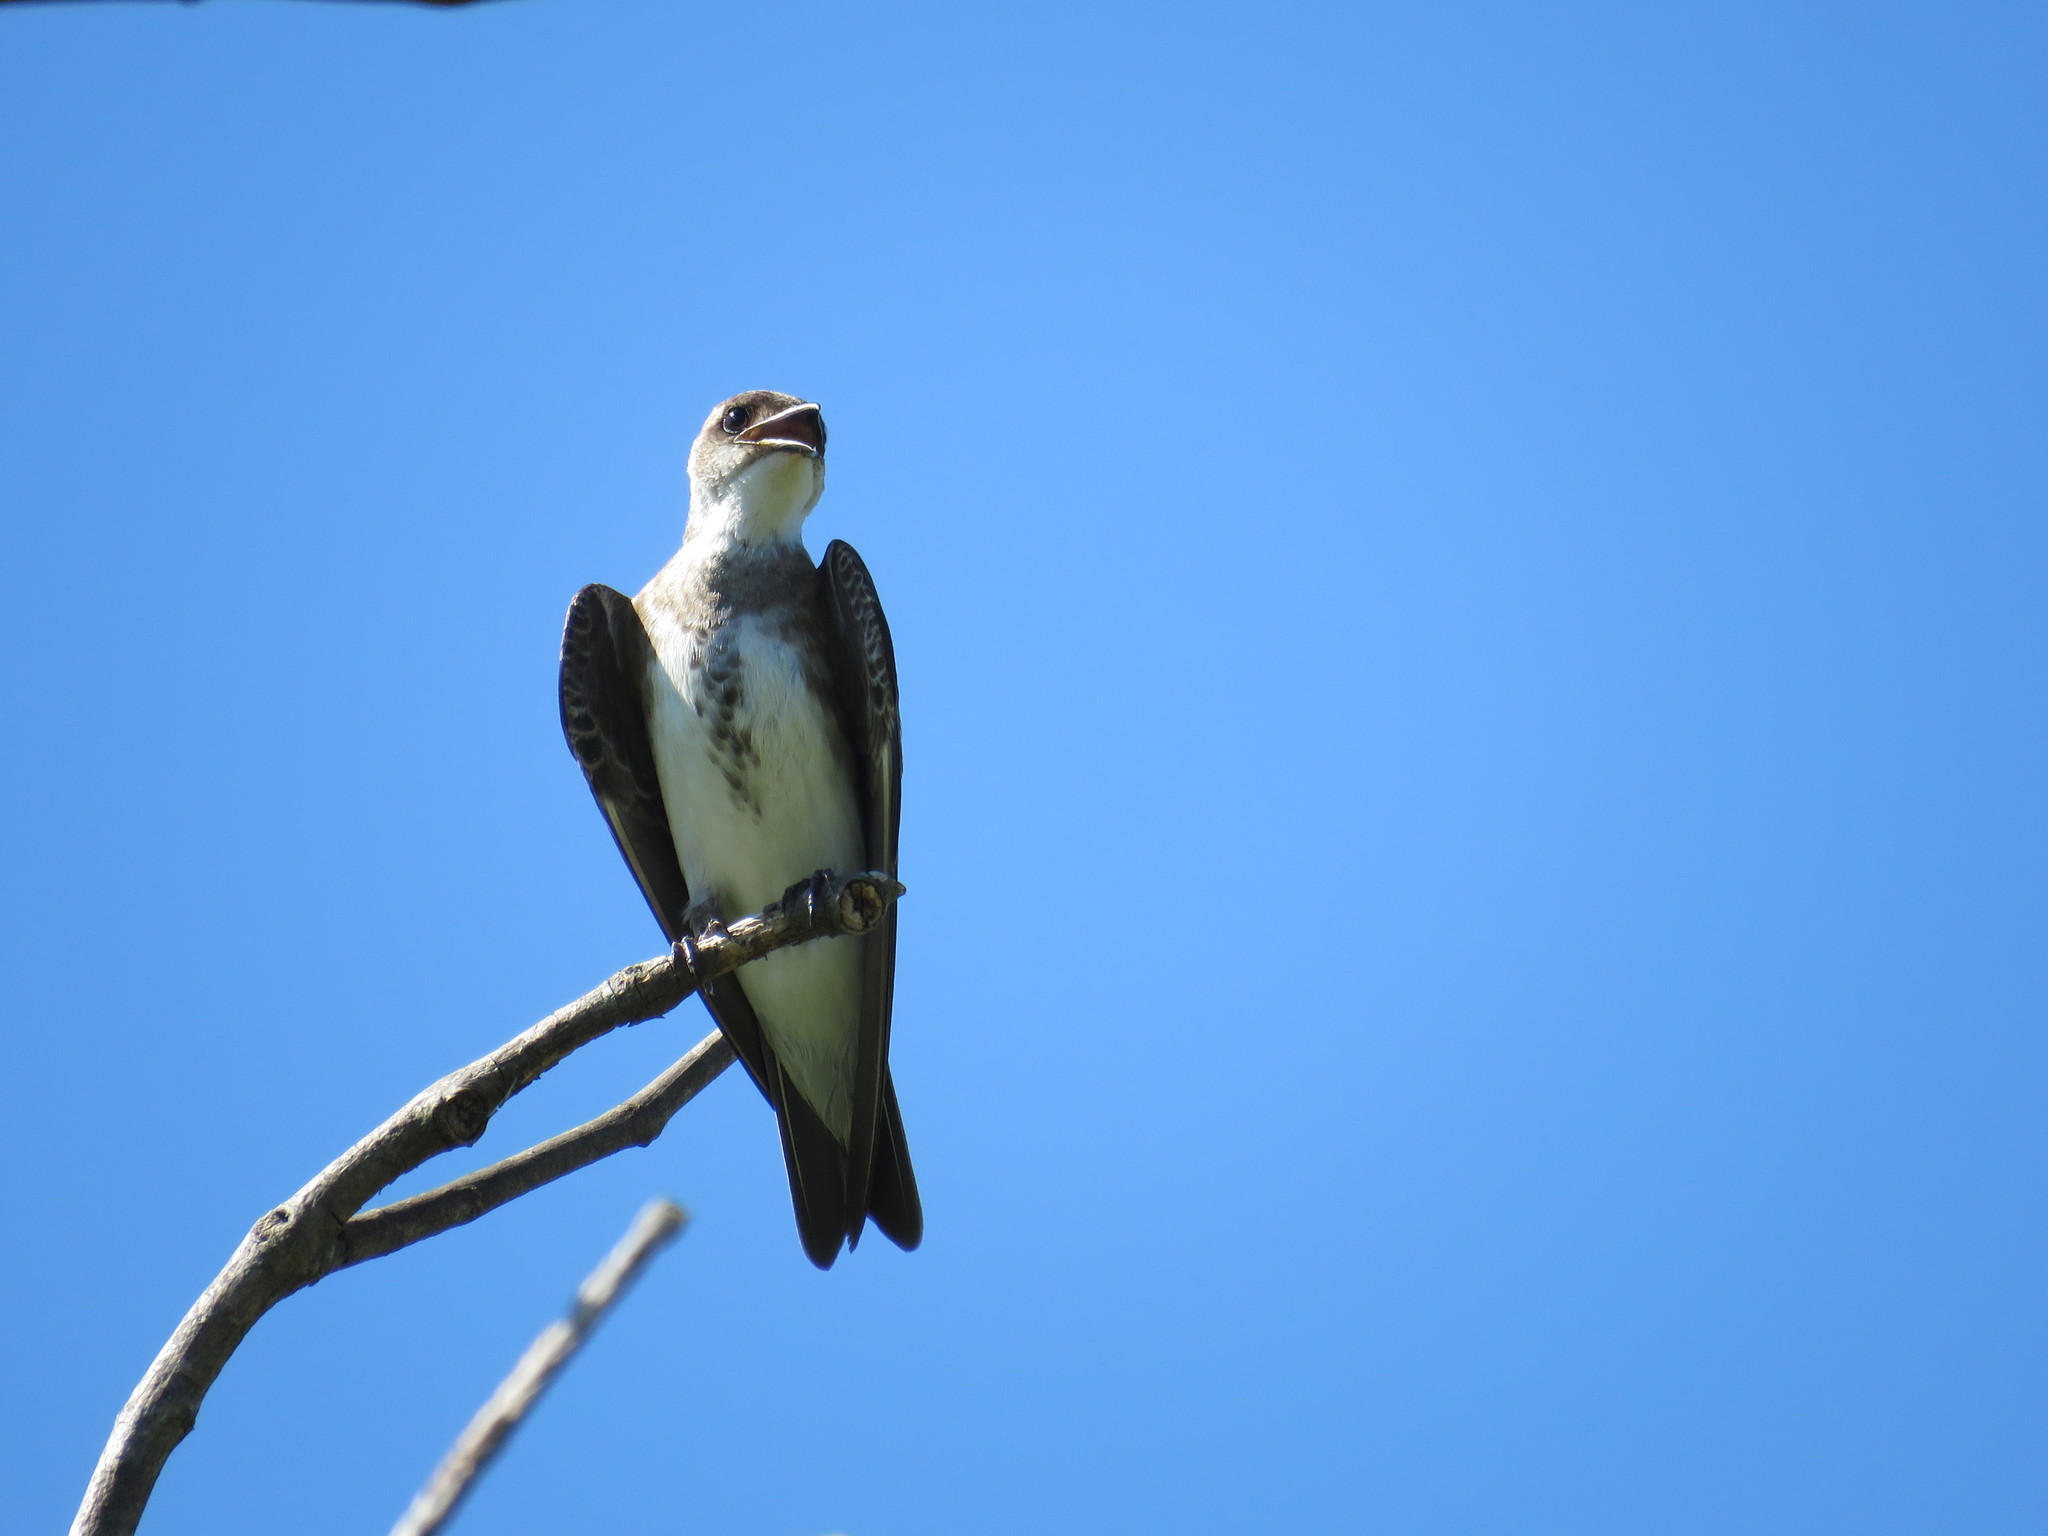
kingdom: Animalia
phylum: Chordata
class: Aves
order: Passeriformes
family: Hirundinidae
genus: Progne
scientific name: Progne tapera
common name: Brown-chested martin
